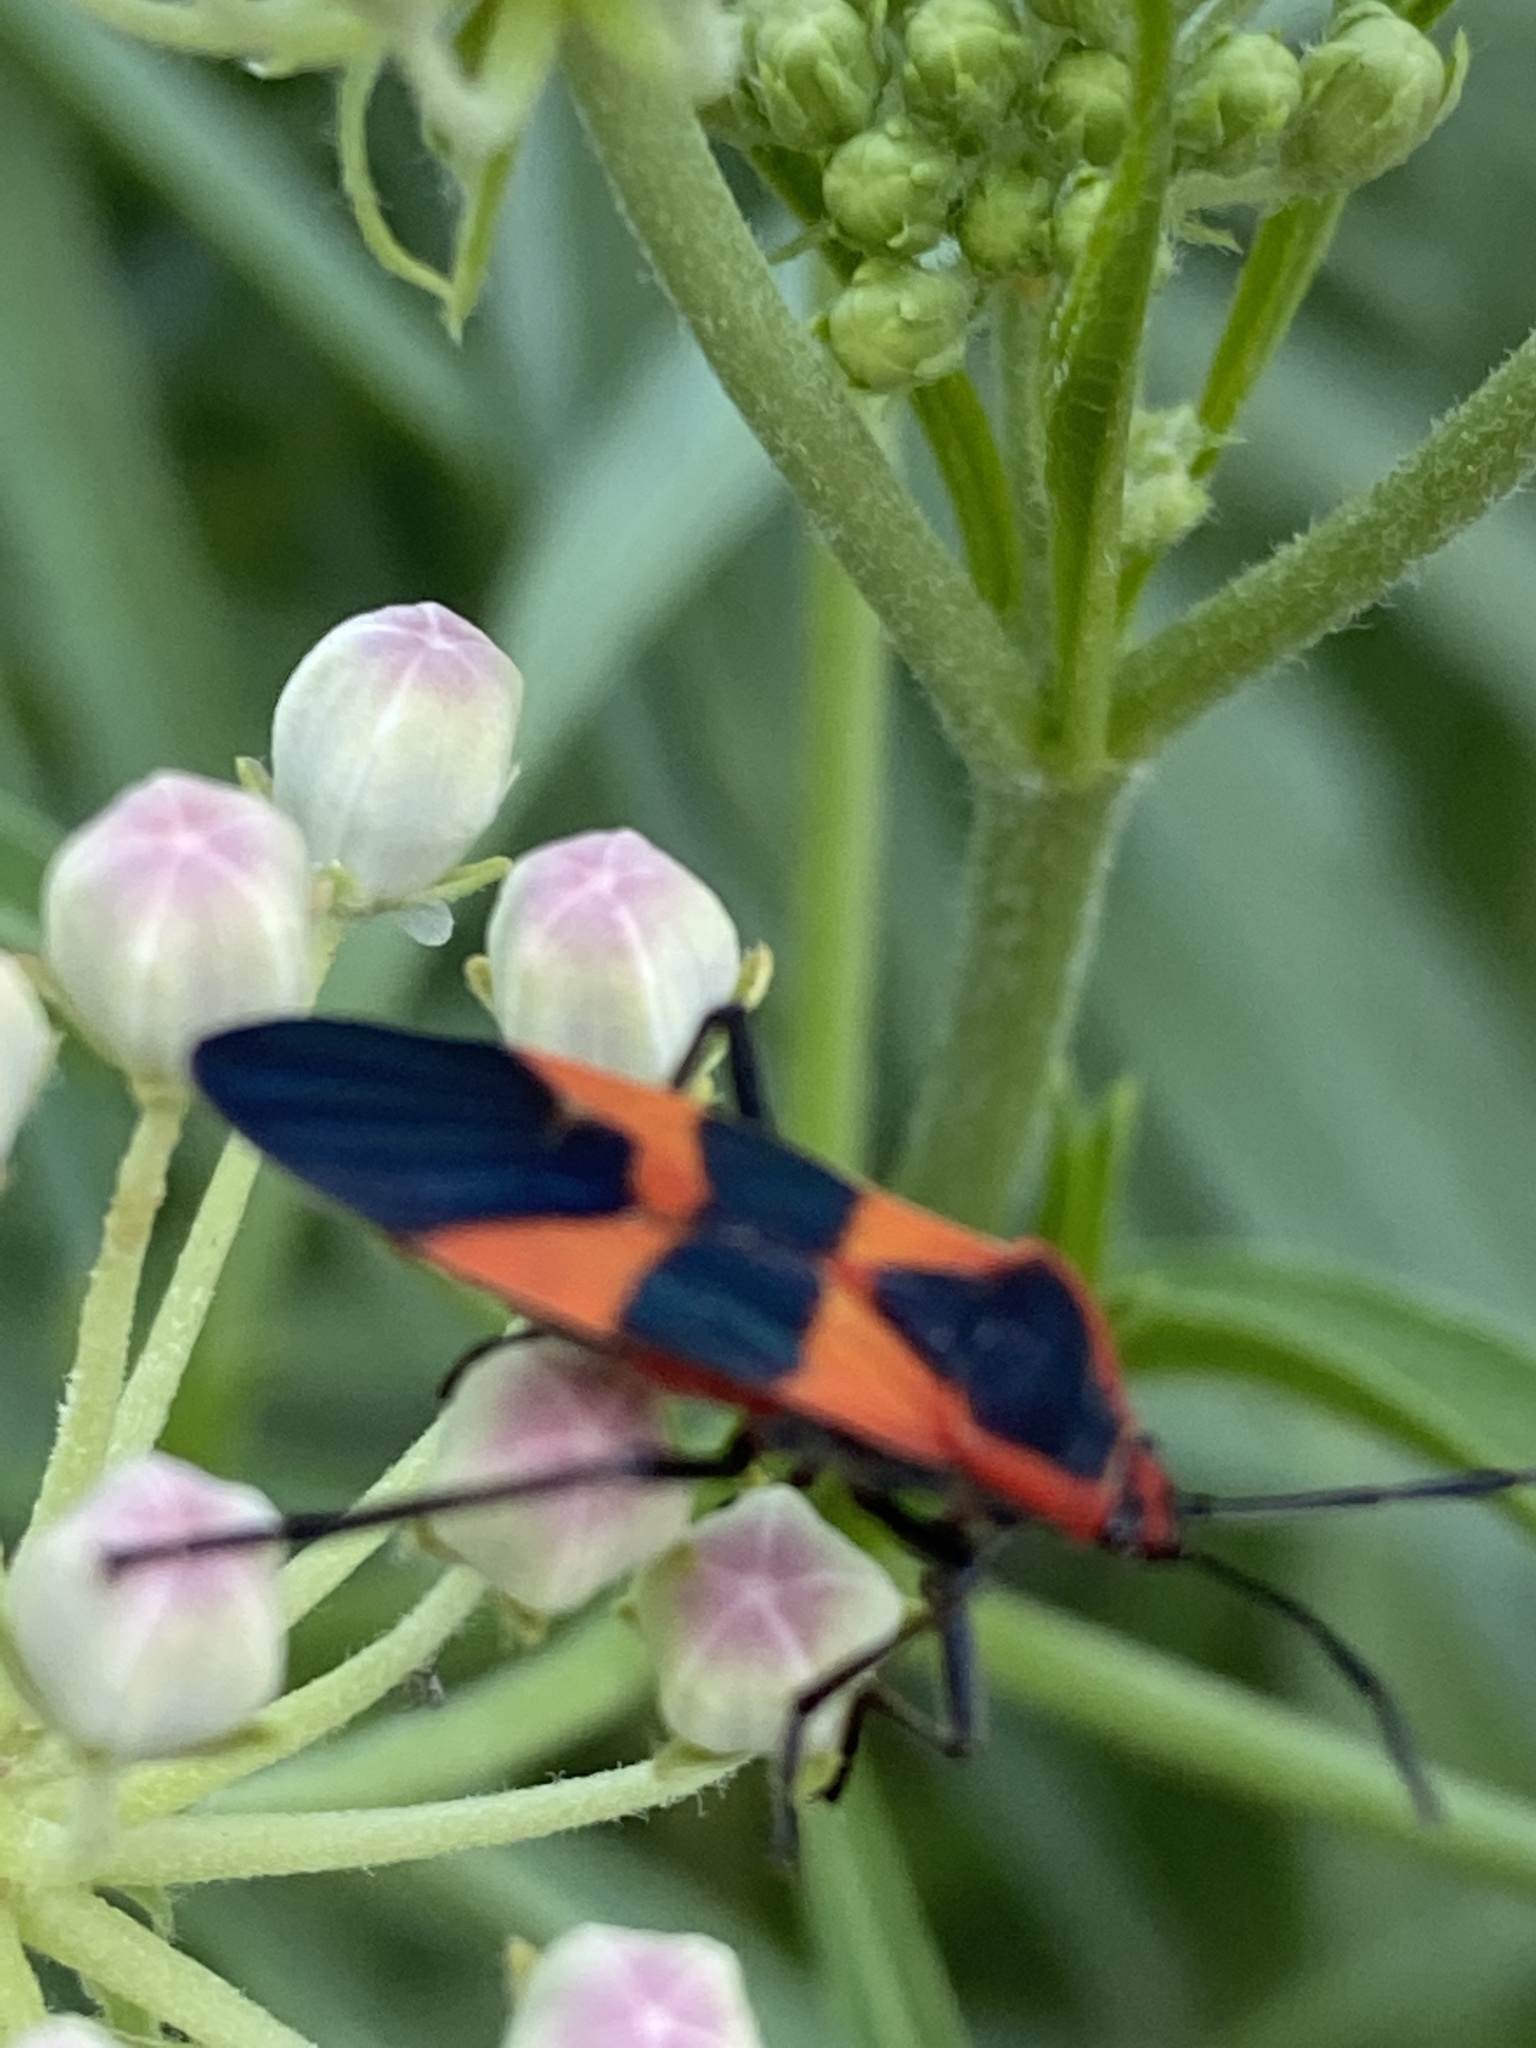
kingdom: Animalia
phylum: Arthropoda
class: Insecta
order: Hemiptera
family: Lygaeidae
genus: Oncopeltus
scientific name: Oncopeltus fasciatus
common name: Large milkweed bug
